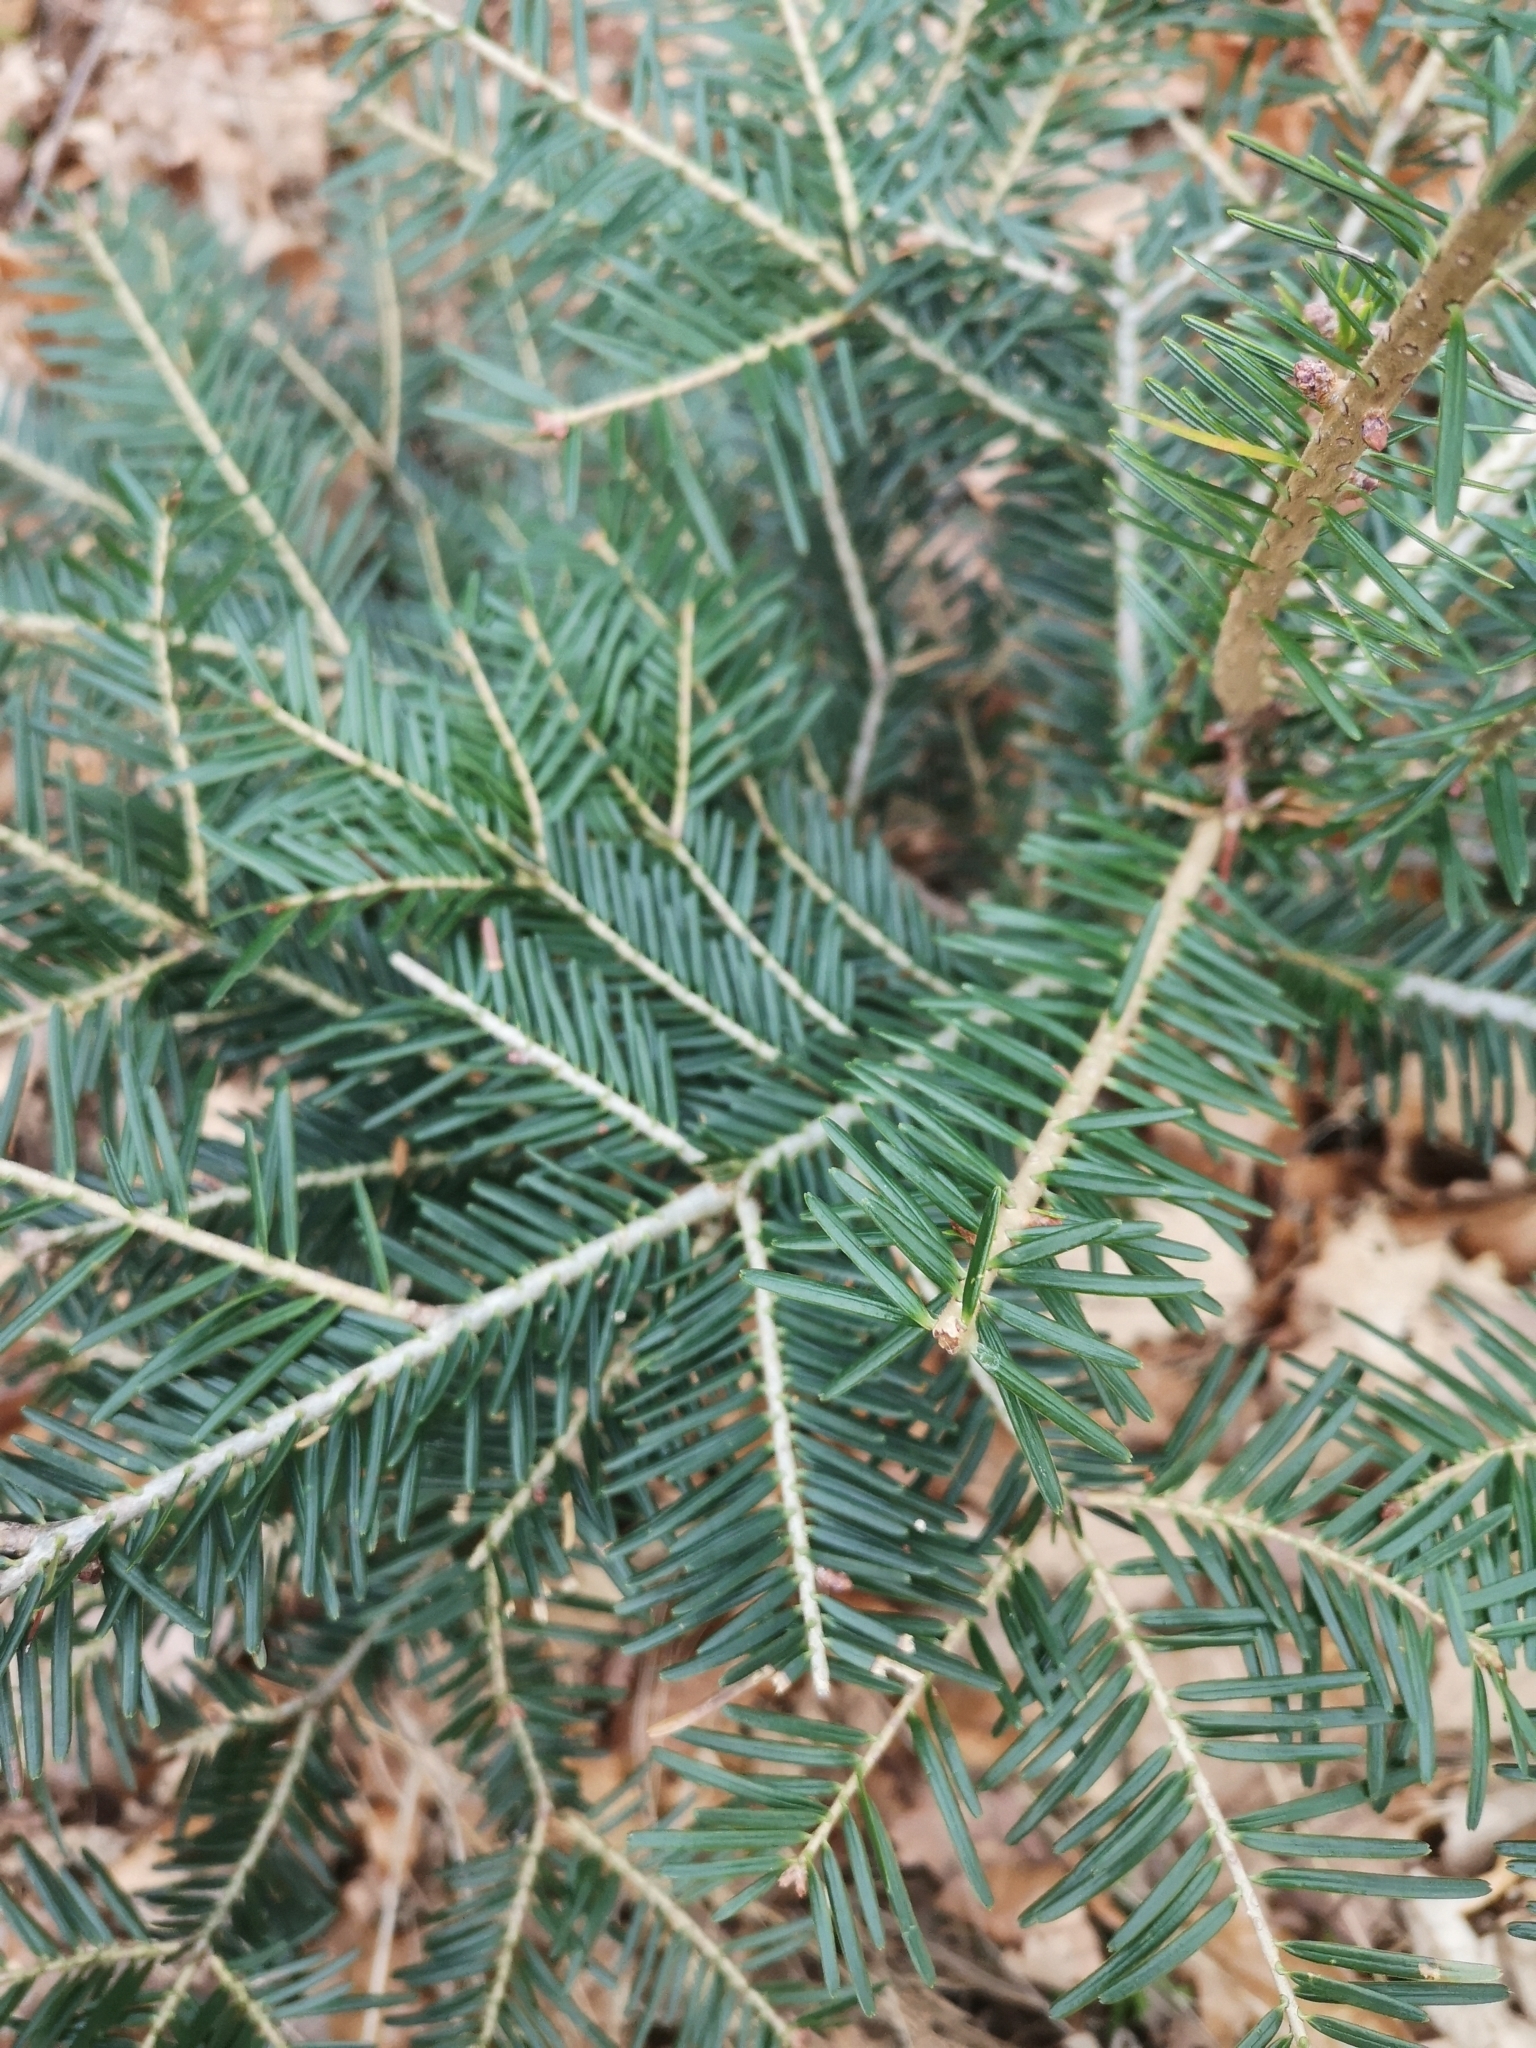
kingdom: Plantae
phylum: Tracheophyta
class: Pinopsida
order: Pinales
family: Pinaceae
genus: Abies
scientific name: Abies alba
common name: Silver fir
